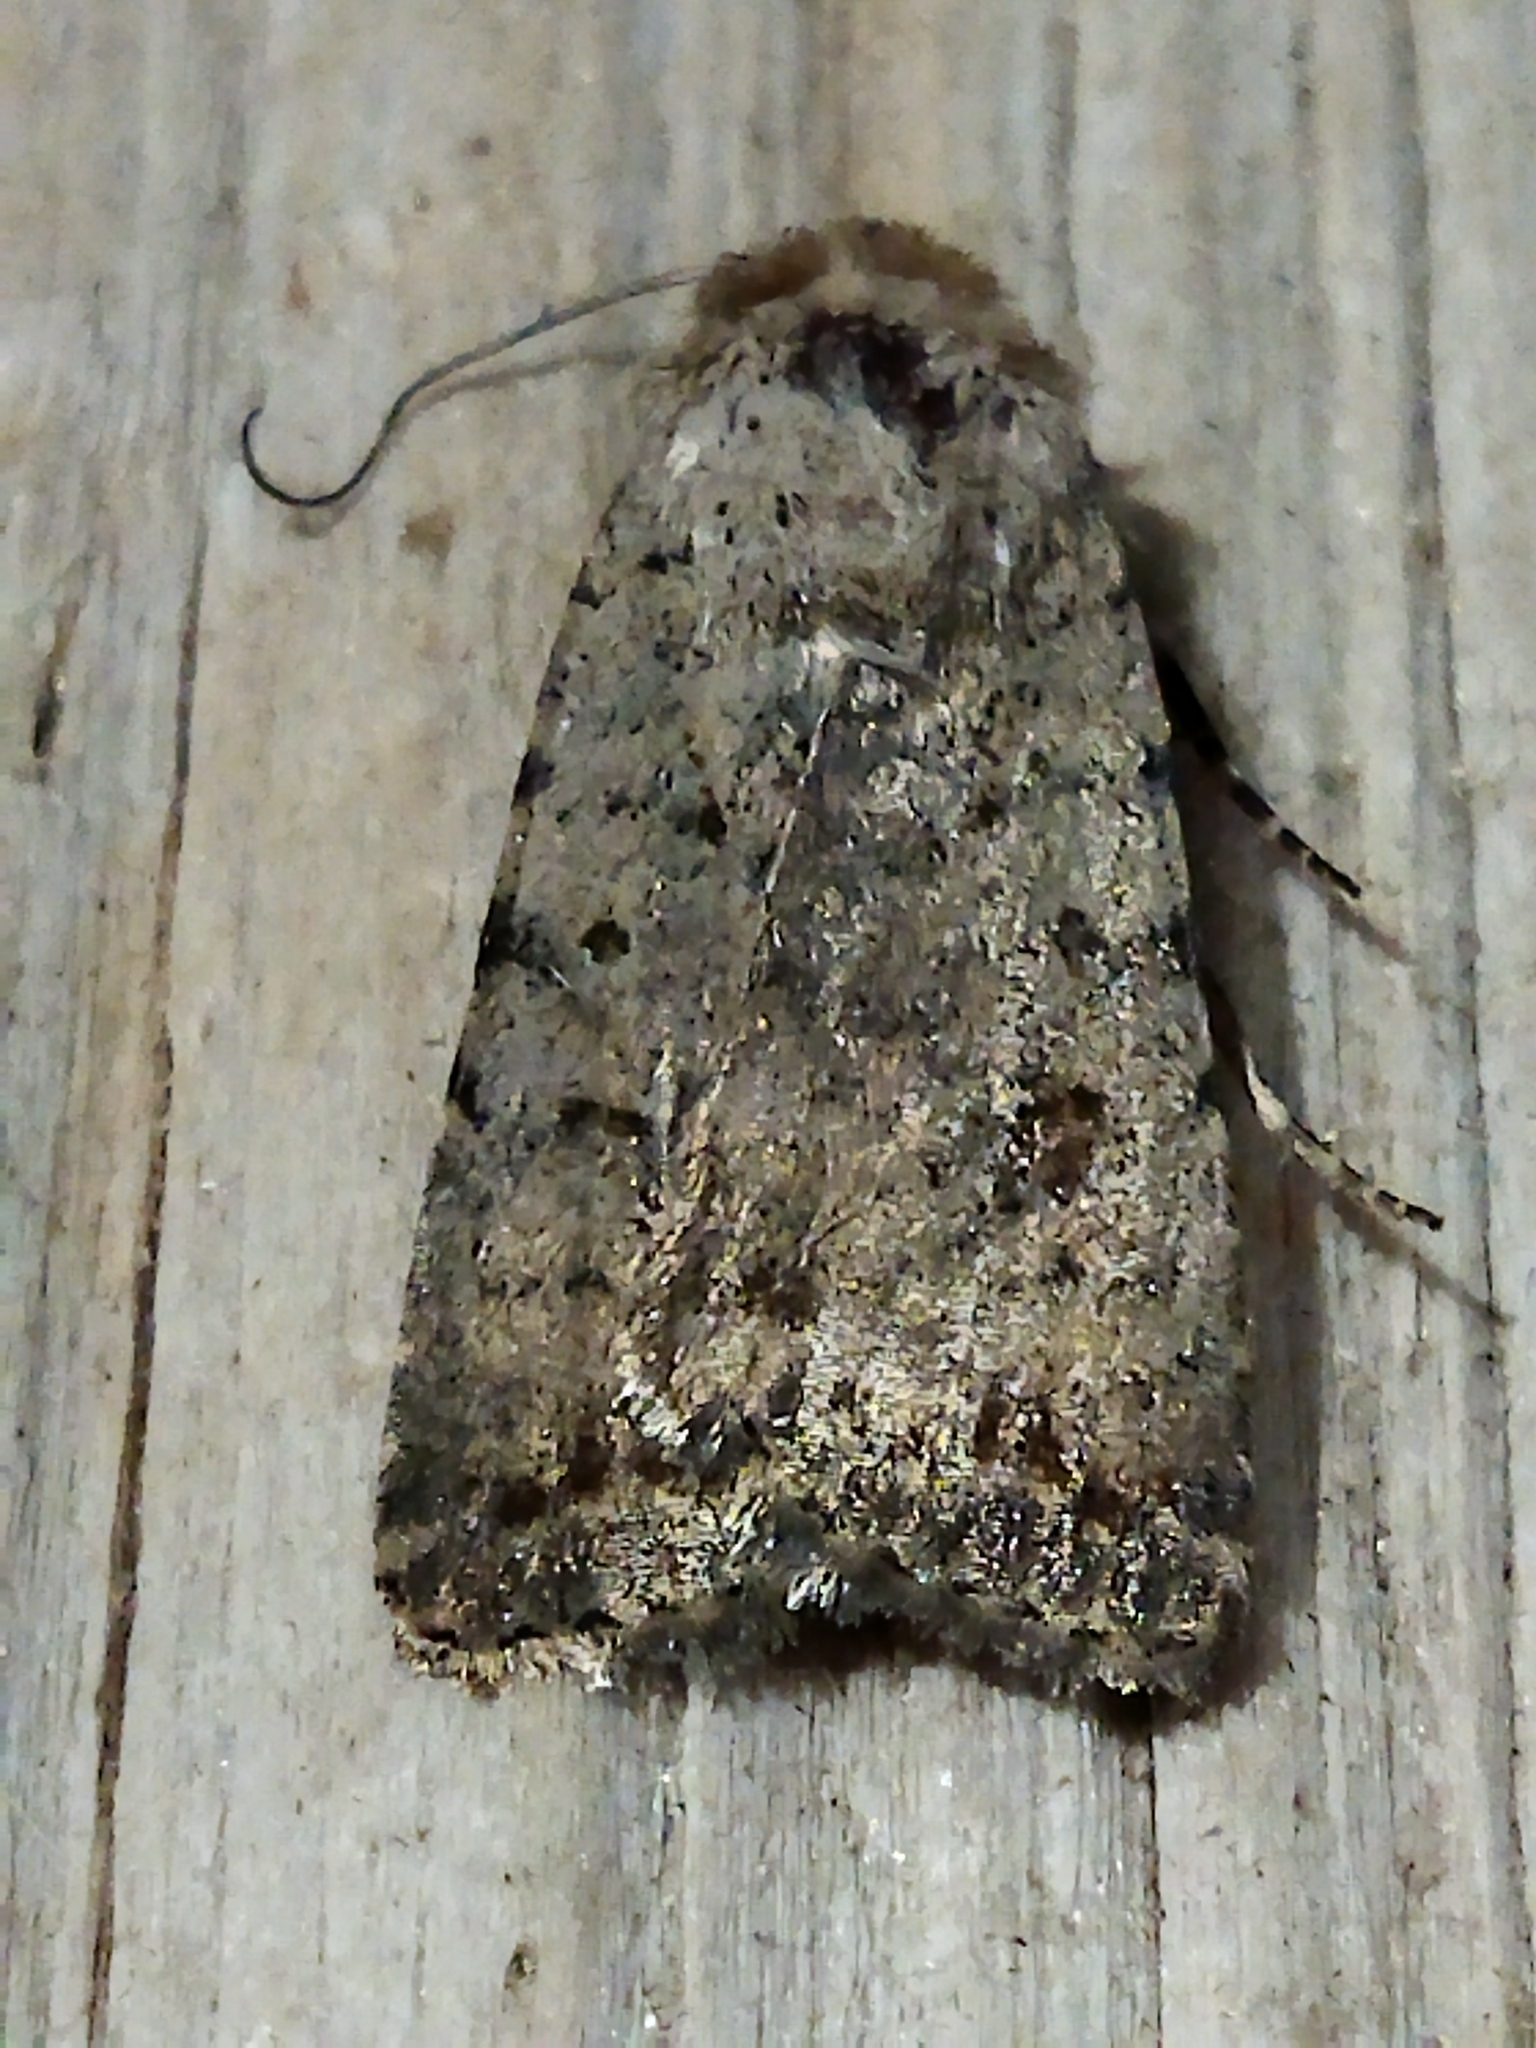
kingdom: Animalia
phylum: Arthropoda
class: Insecta
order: Lepidoptera
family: Noctuidae
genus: Caradrina
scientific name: Caradrina clavipalpis
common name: Pale mottled willow
